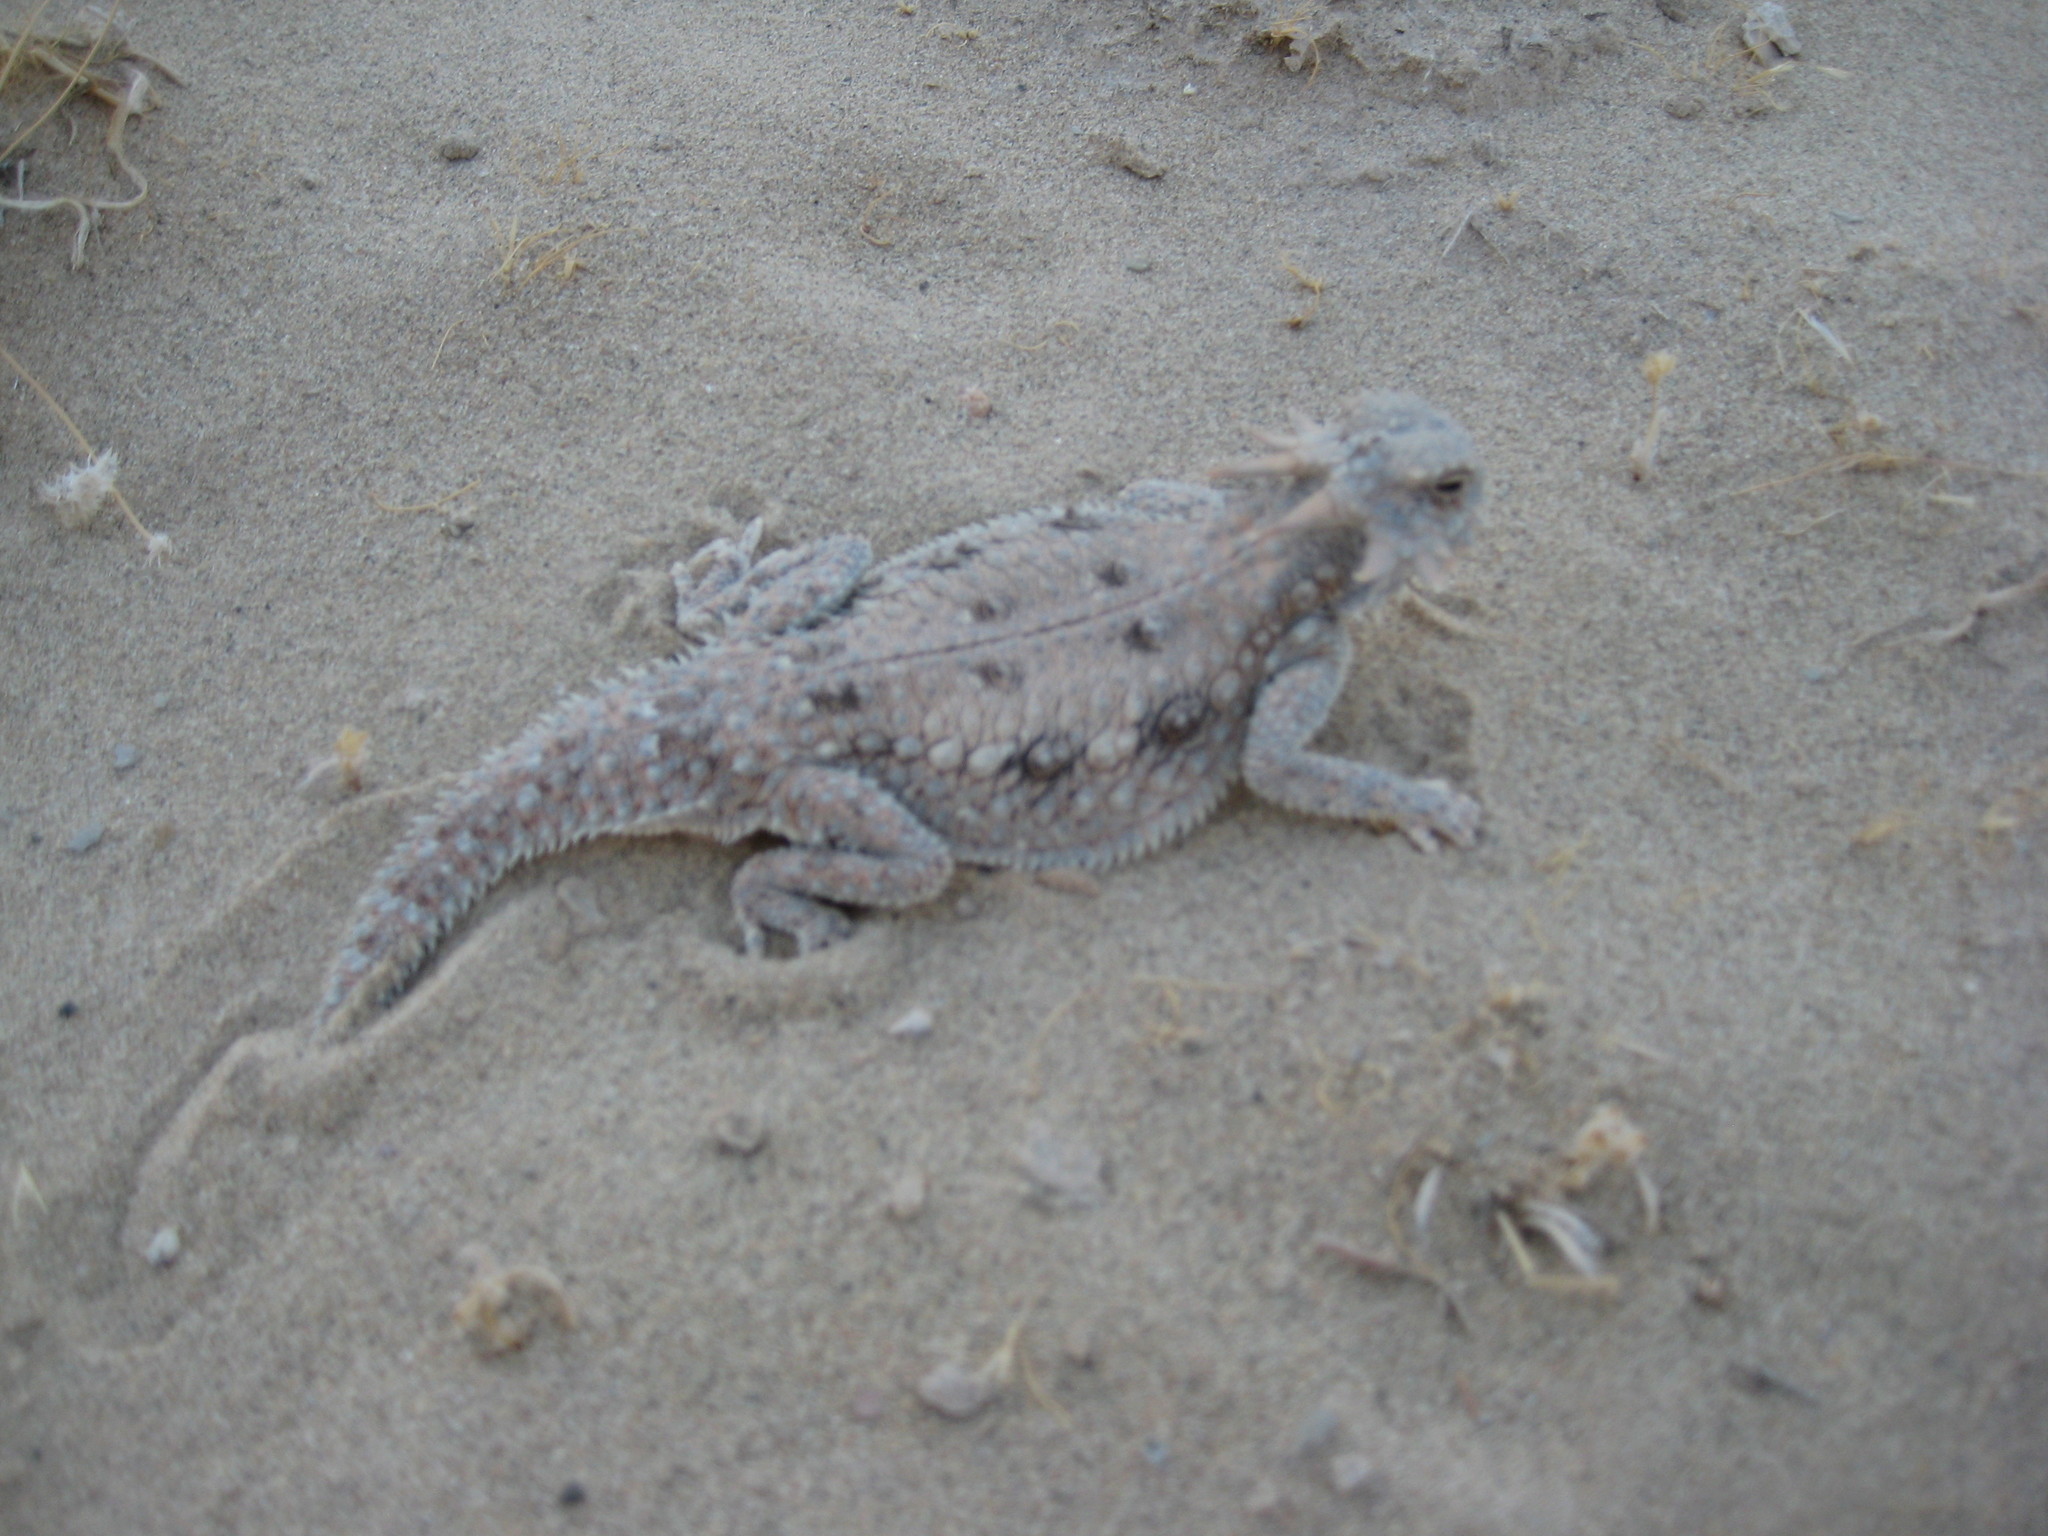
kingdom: Animalia
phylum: Chordata
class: Squamata
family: Phrynosomatidae
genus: Phrynosoma
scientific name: Phrynosoma mcallii
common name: Flat-tailed horned lizard
